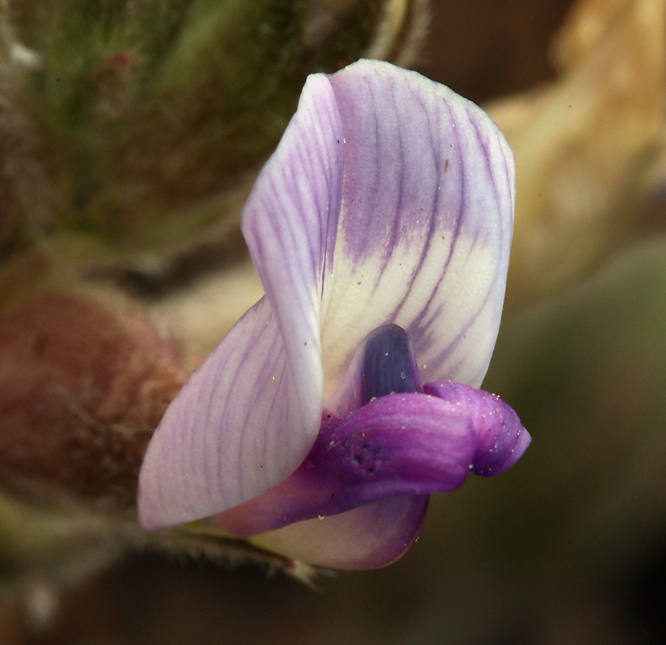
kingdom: Plantae
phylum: Tracheophyta
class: Magnoliopsida
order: Fabales
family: Fabaceae
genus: Astragalus
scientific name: Astragalus leucolobus
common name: Big bear valley woollypod
